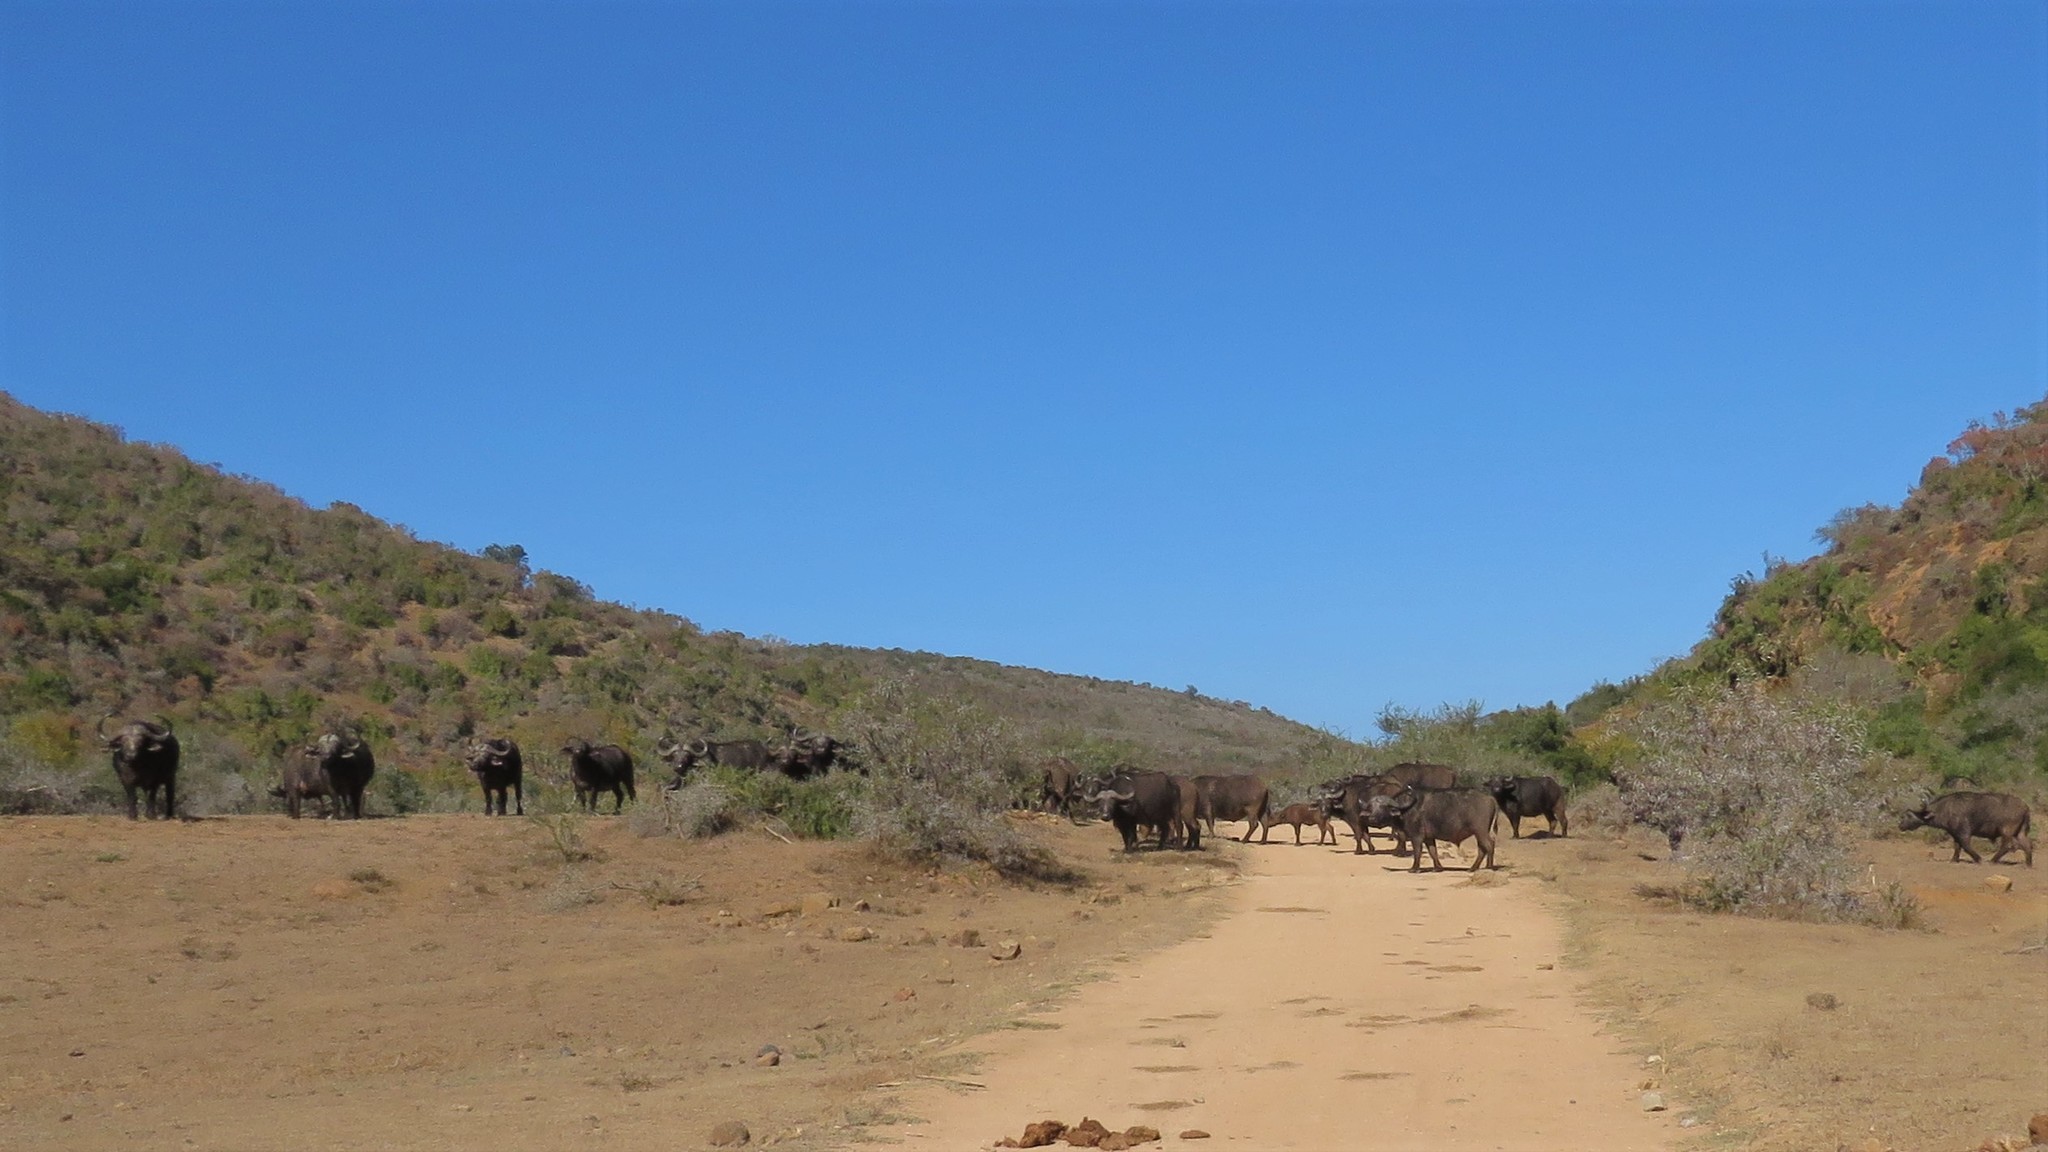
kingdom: Animalia
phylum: Chordata
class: Mammalia
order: Artiodactyla
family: Bovidae
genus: Syncerus
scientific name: Syncerus caffer
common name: African buffalo
